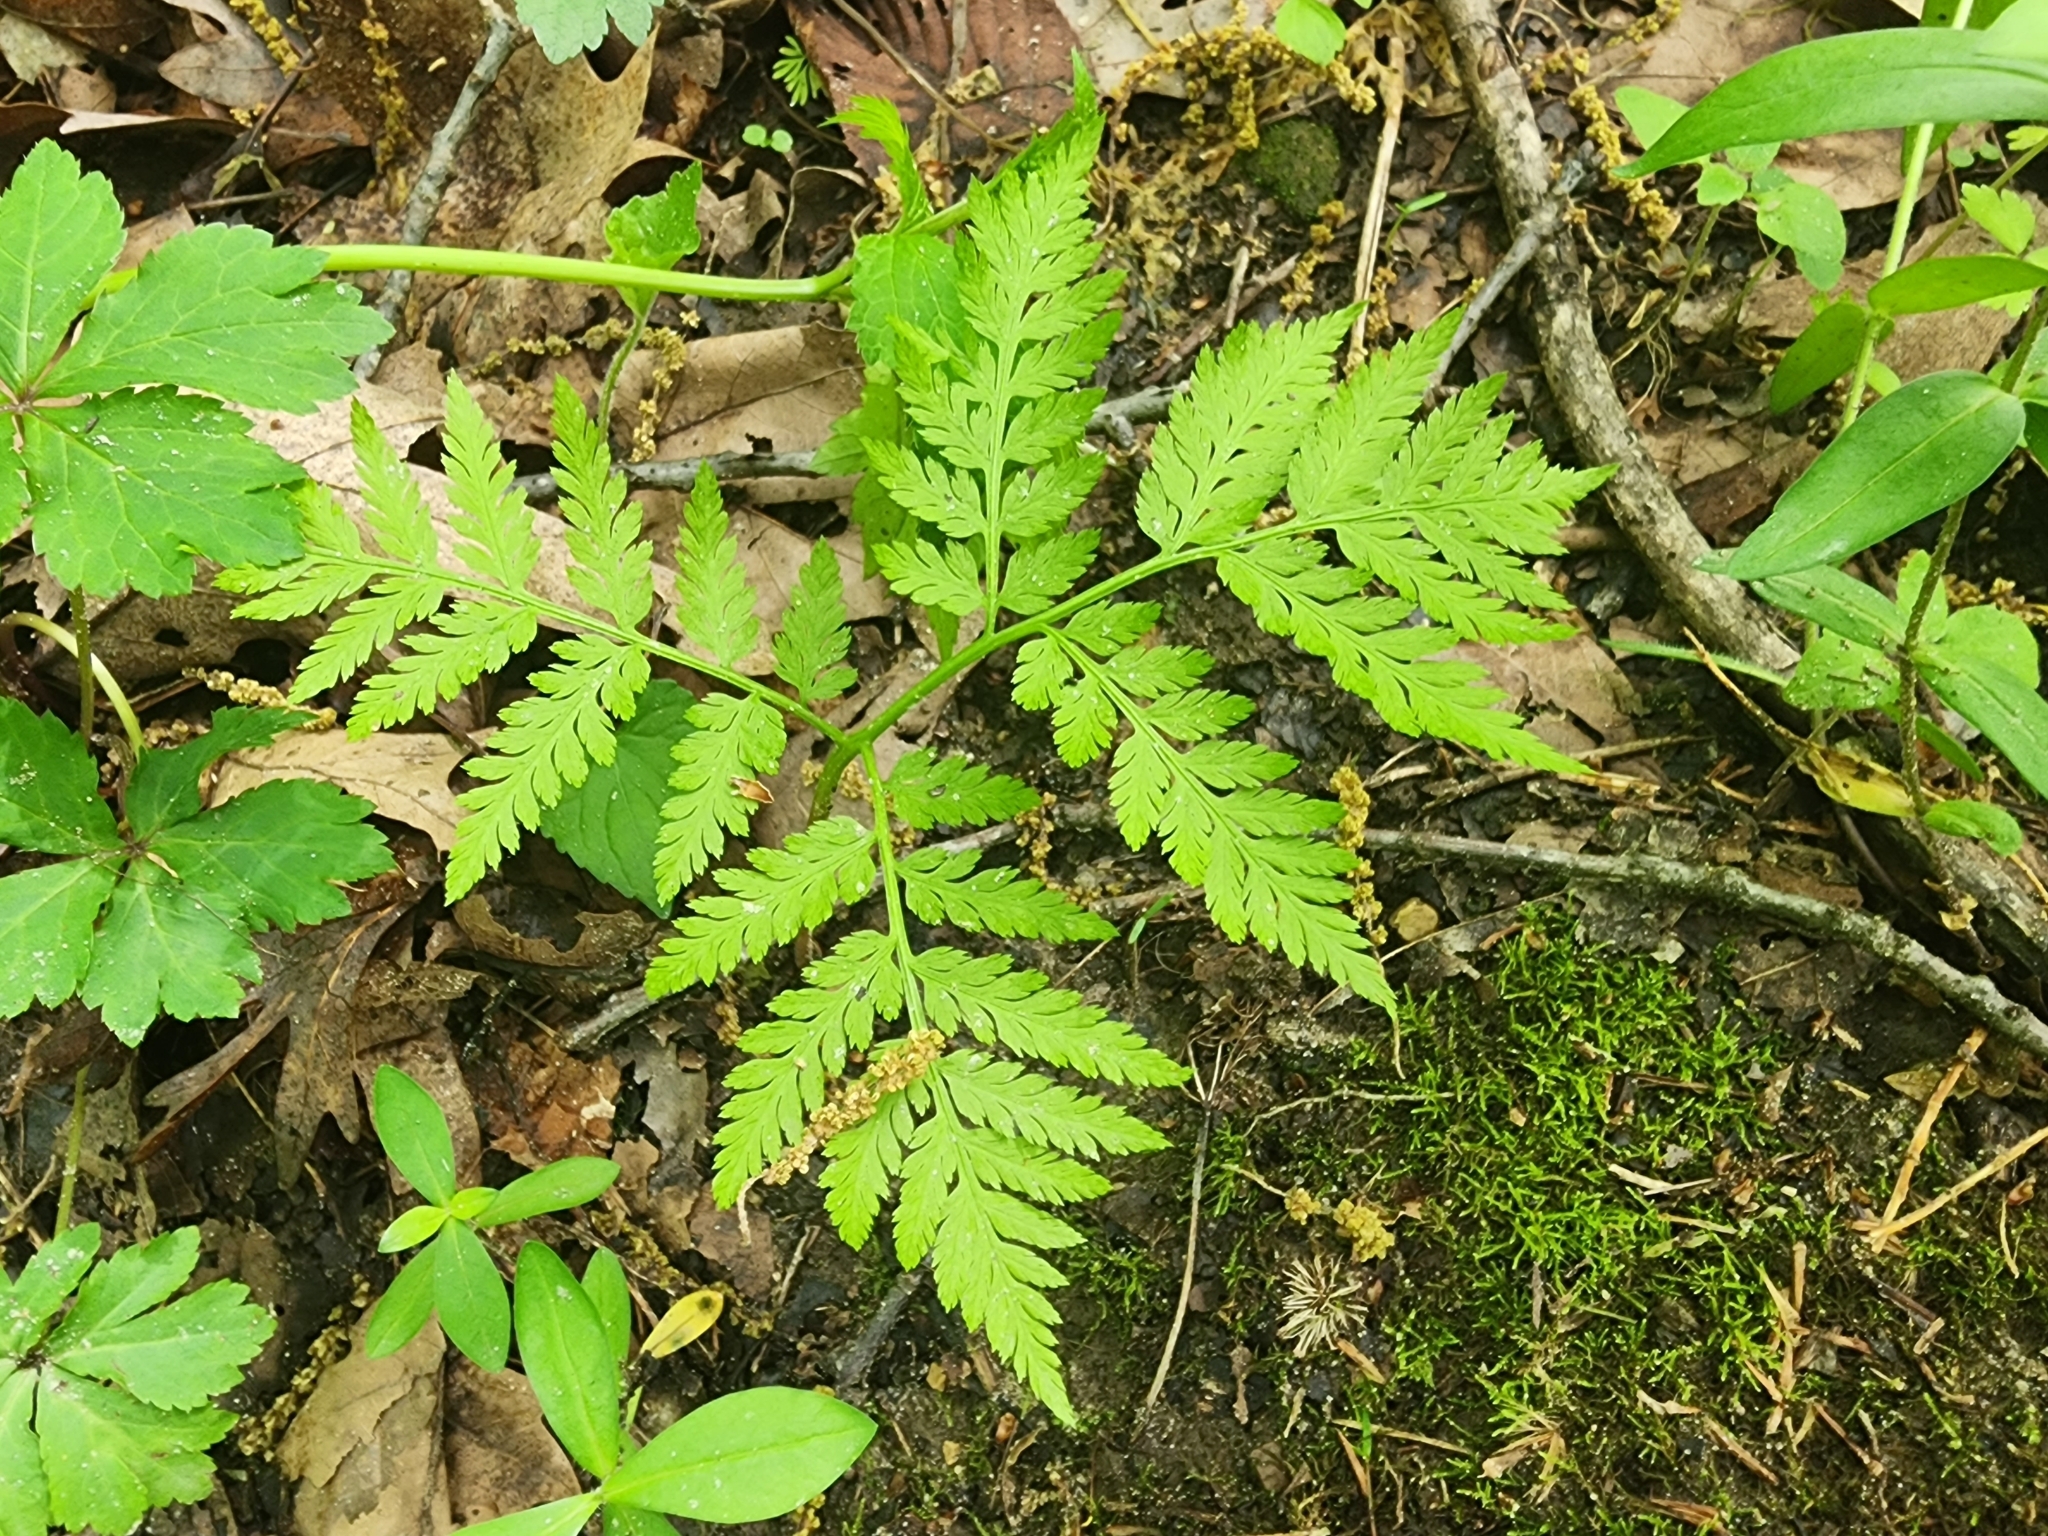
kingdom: Plantae
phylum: Tracheophyta
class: Polypodiopsida
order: Ophioglossales
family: Ophioglossaceae
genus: Botrypus
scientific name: Botrypus virginianus
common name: Common grapefern
